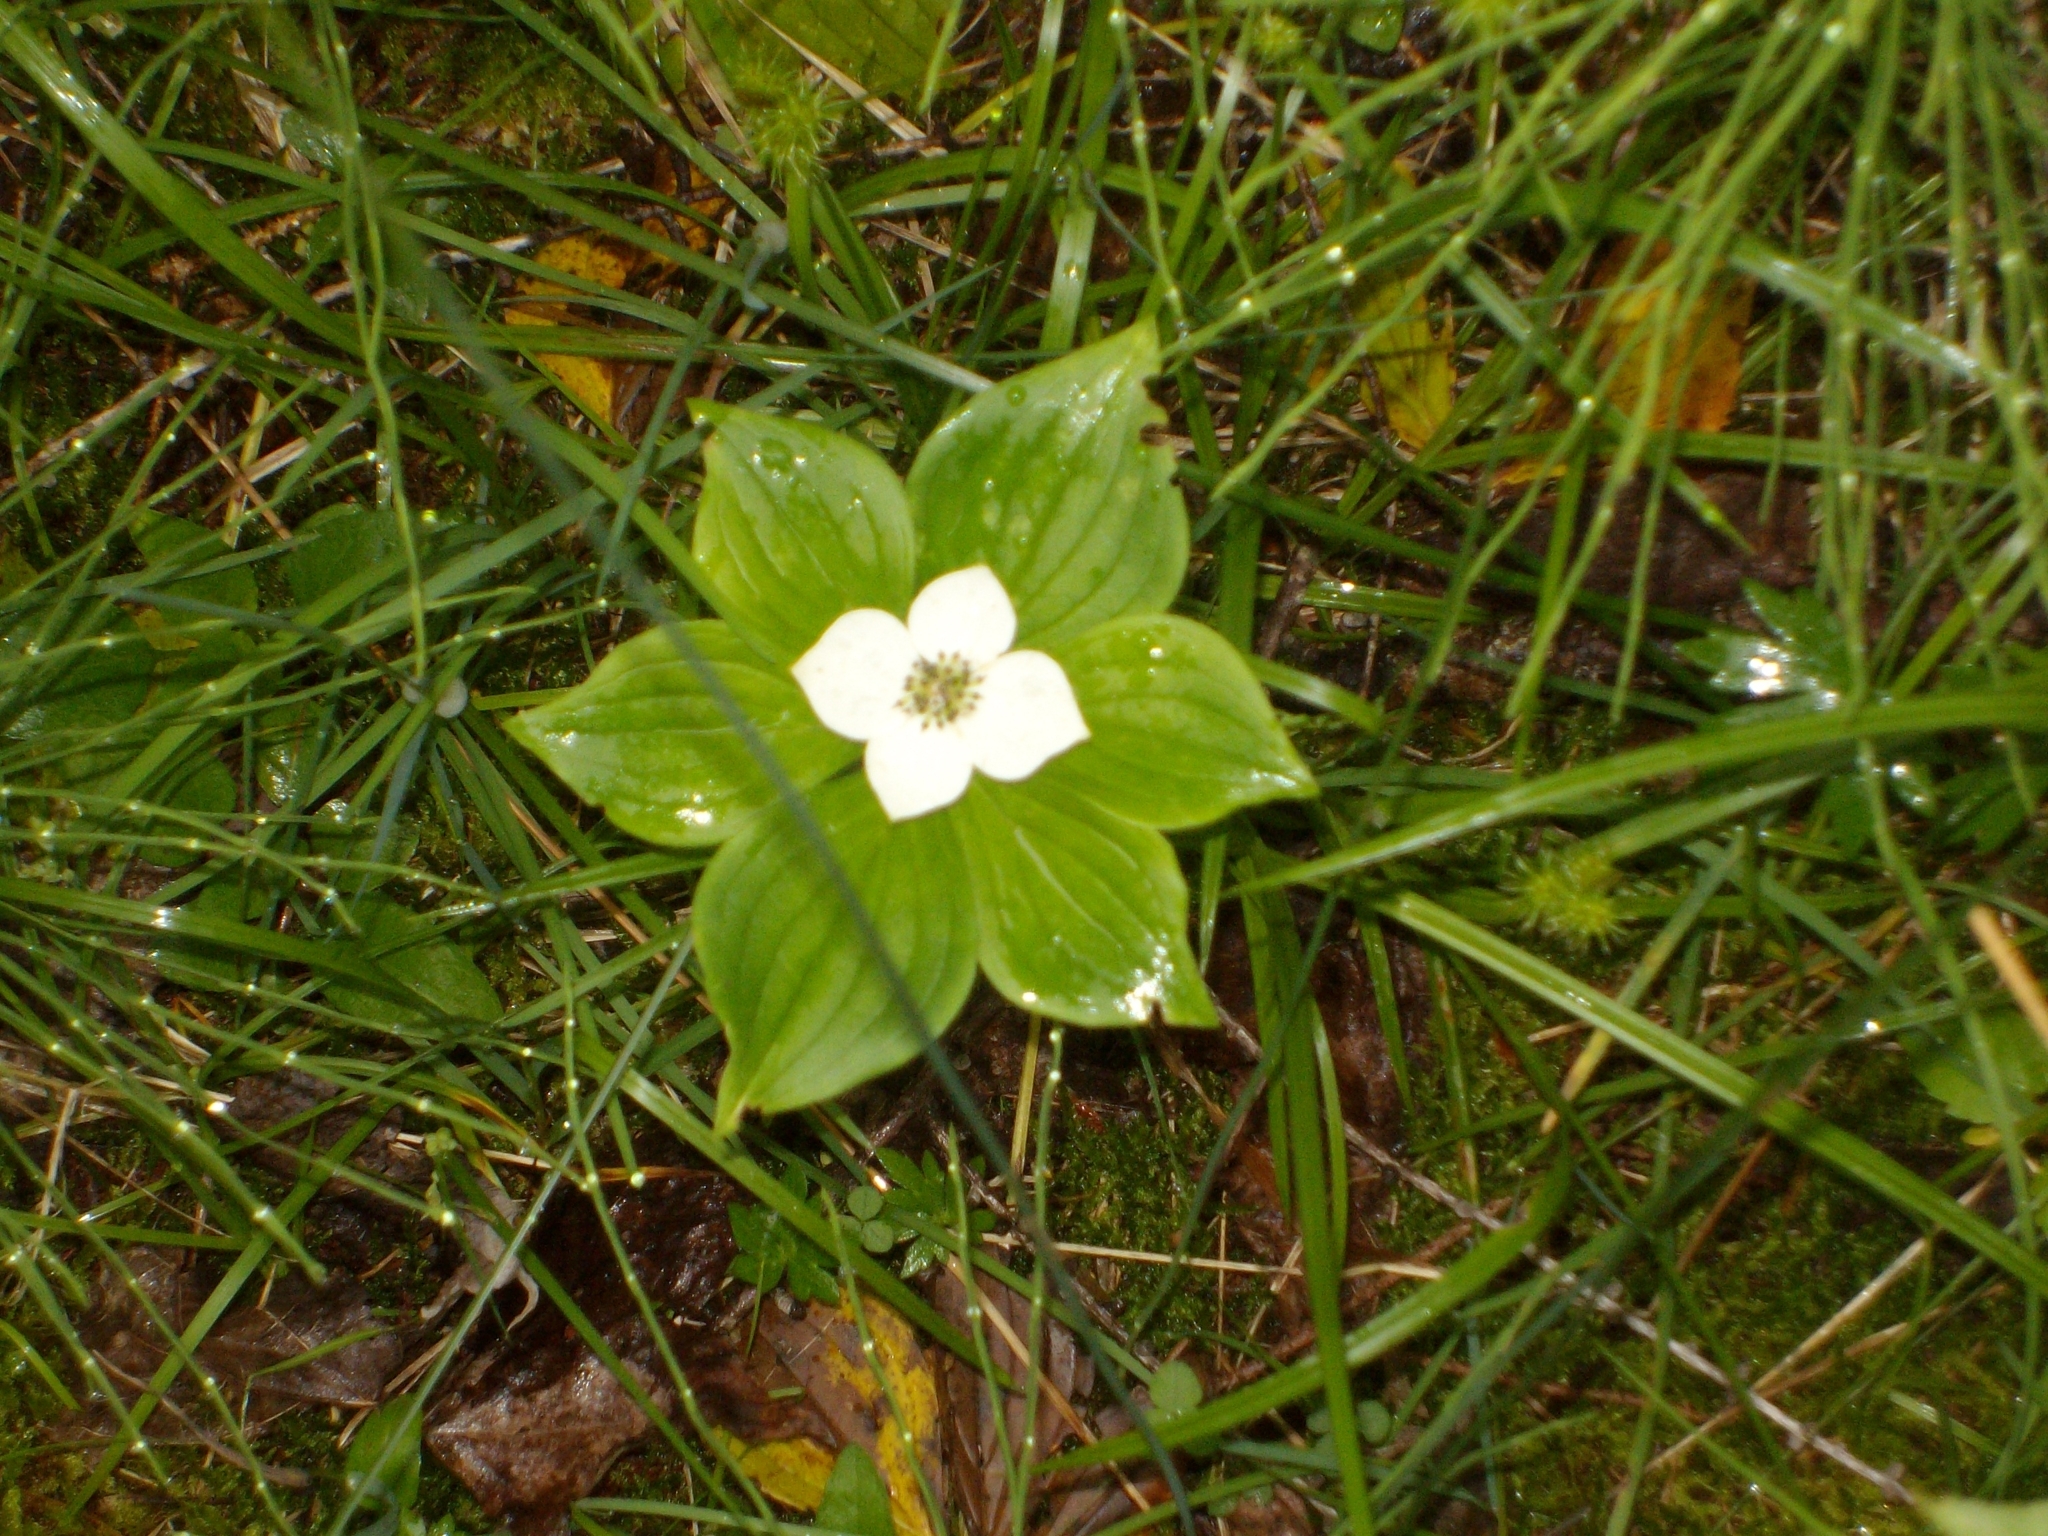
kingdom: Plantae
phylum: Tracheophyta
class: Magnoliopsida
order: Cornales
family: Cornaceae
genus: Cornus
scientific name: Cornus canadensis
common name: Creeping dogwood
